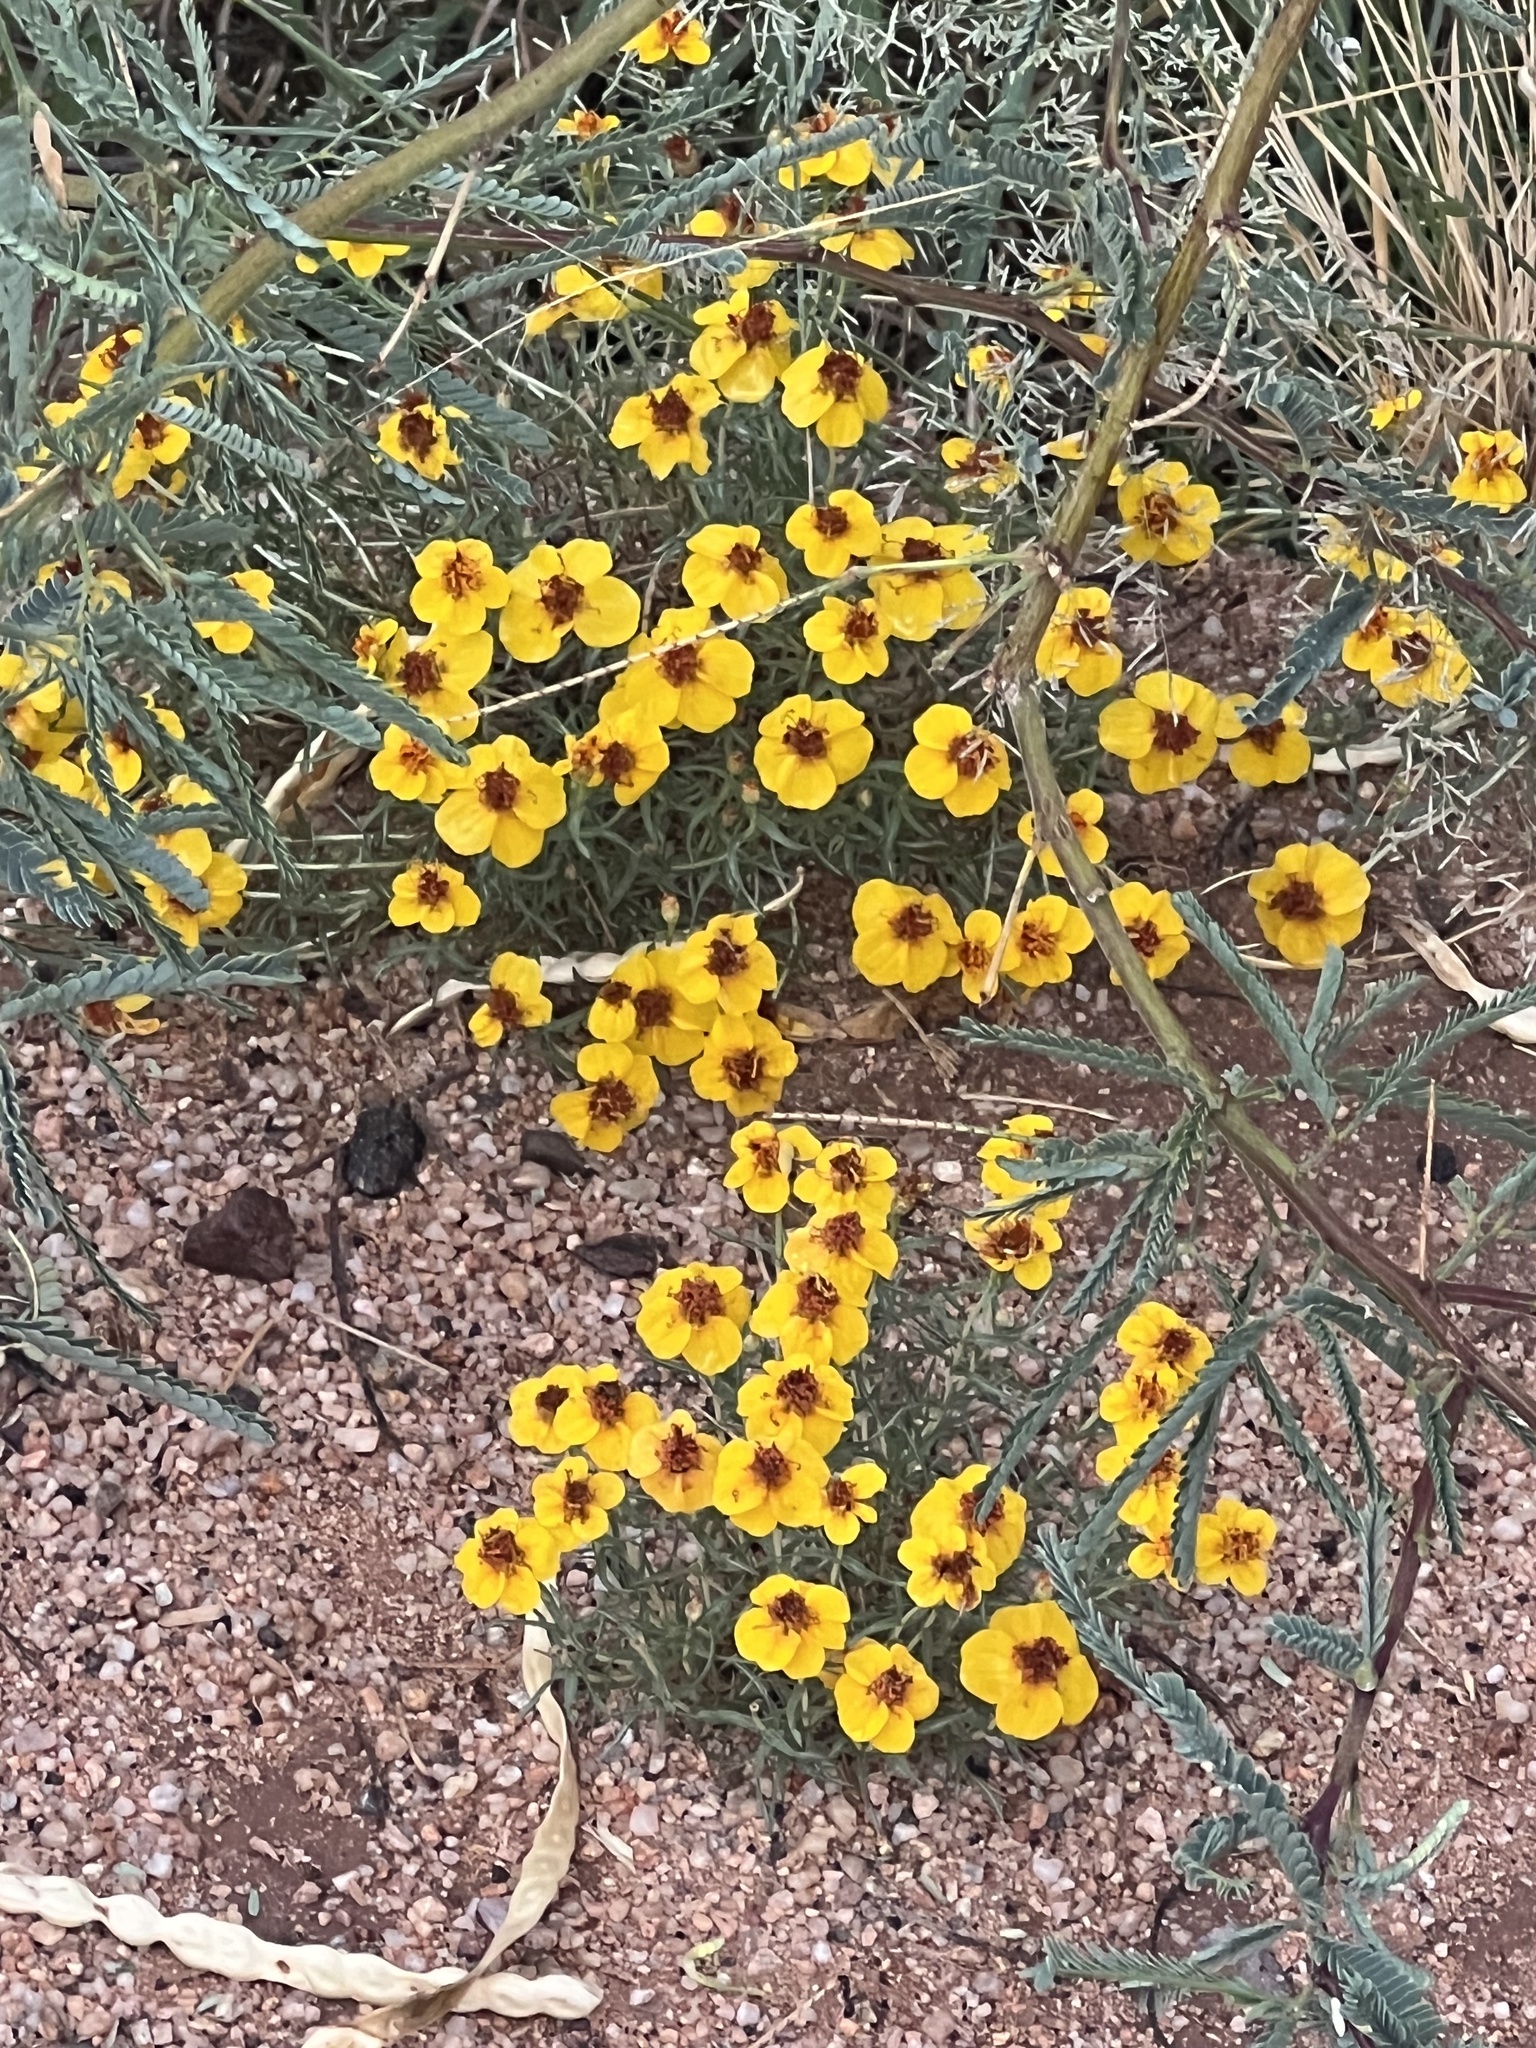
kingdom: Plantae
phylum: Tracheophyta
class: Magnoliopsida
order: Asterales
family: Asteraceae
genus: Zinnia
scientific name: Zinnia grandiflora
